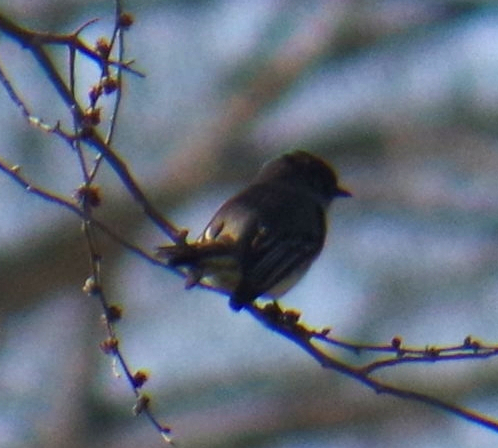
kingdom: Animalia
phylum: Chordata
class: Aves
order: Passeriformes
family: Tyrannidae
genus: Sayornis
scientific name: Sayornis phoebe
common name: Eastern phoebe
